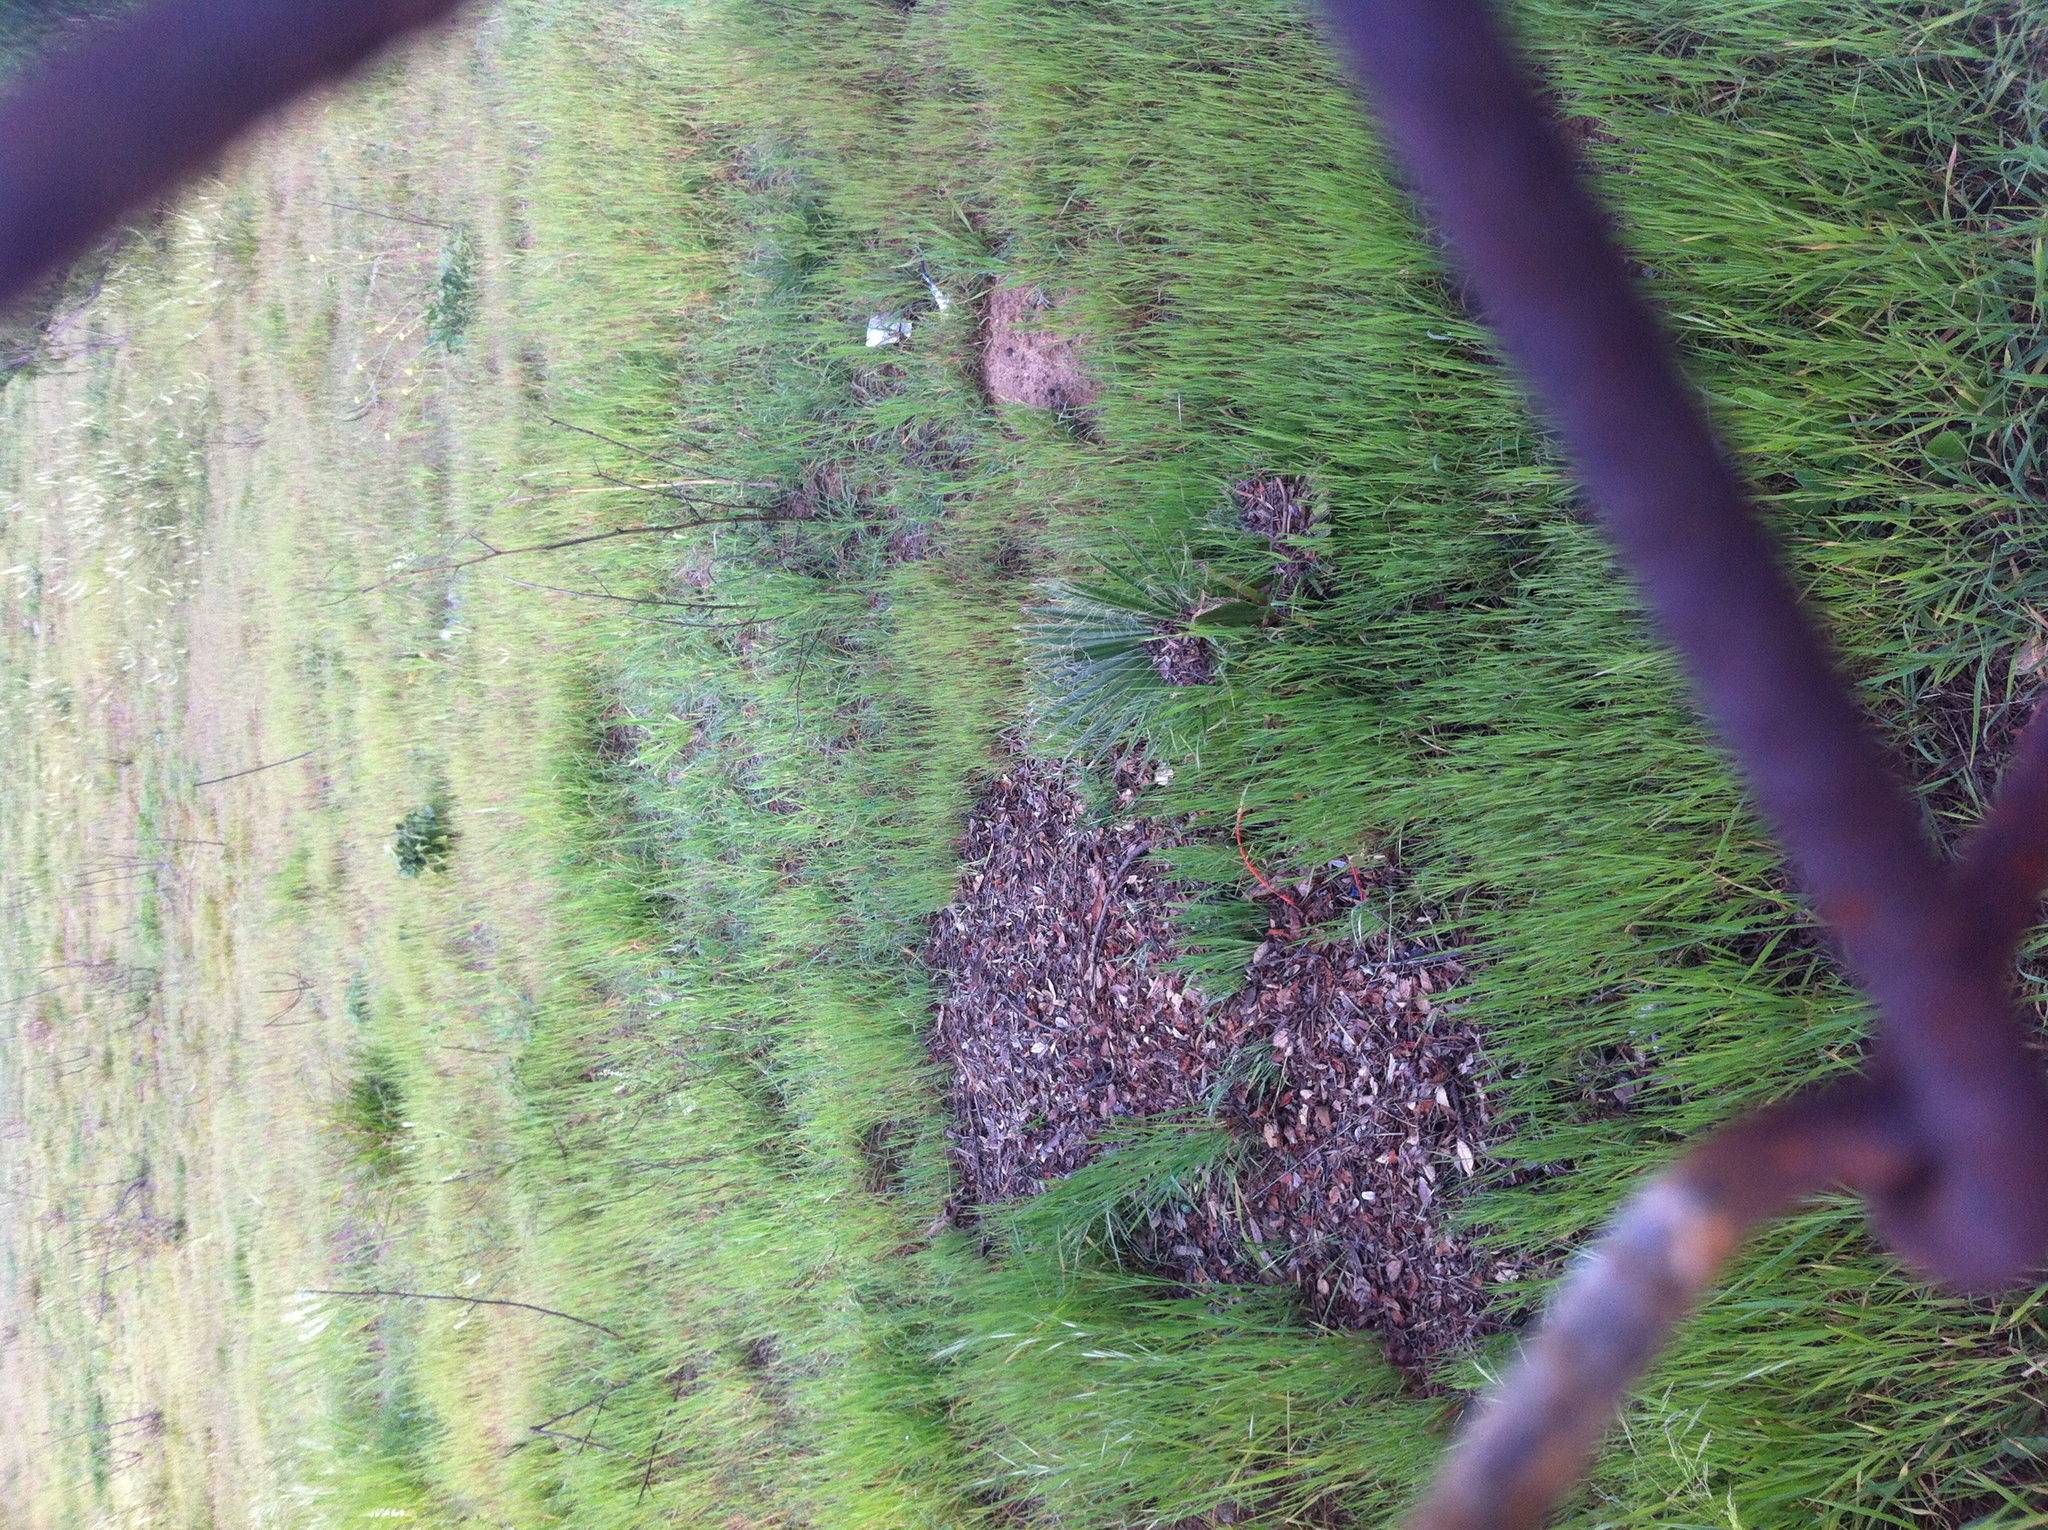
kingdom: Plantae
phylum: Tracheophyta
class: Liliopsida
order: Arecales
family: Arecaceae
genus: Washingtonia
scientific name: Washingtonia robusta
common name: Mexican fan palm
